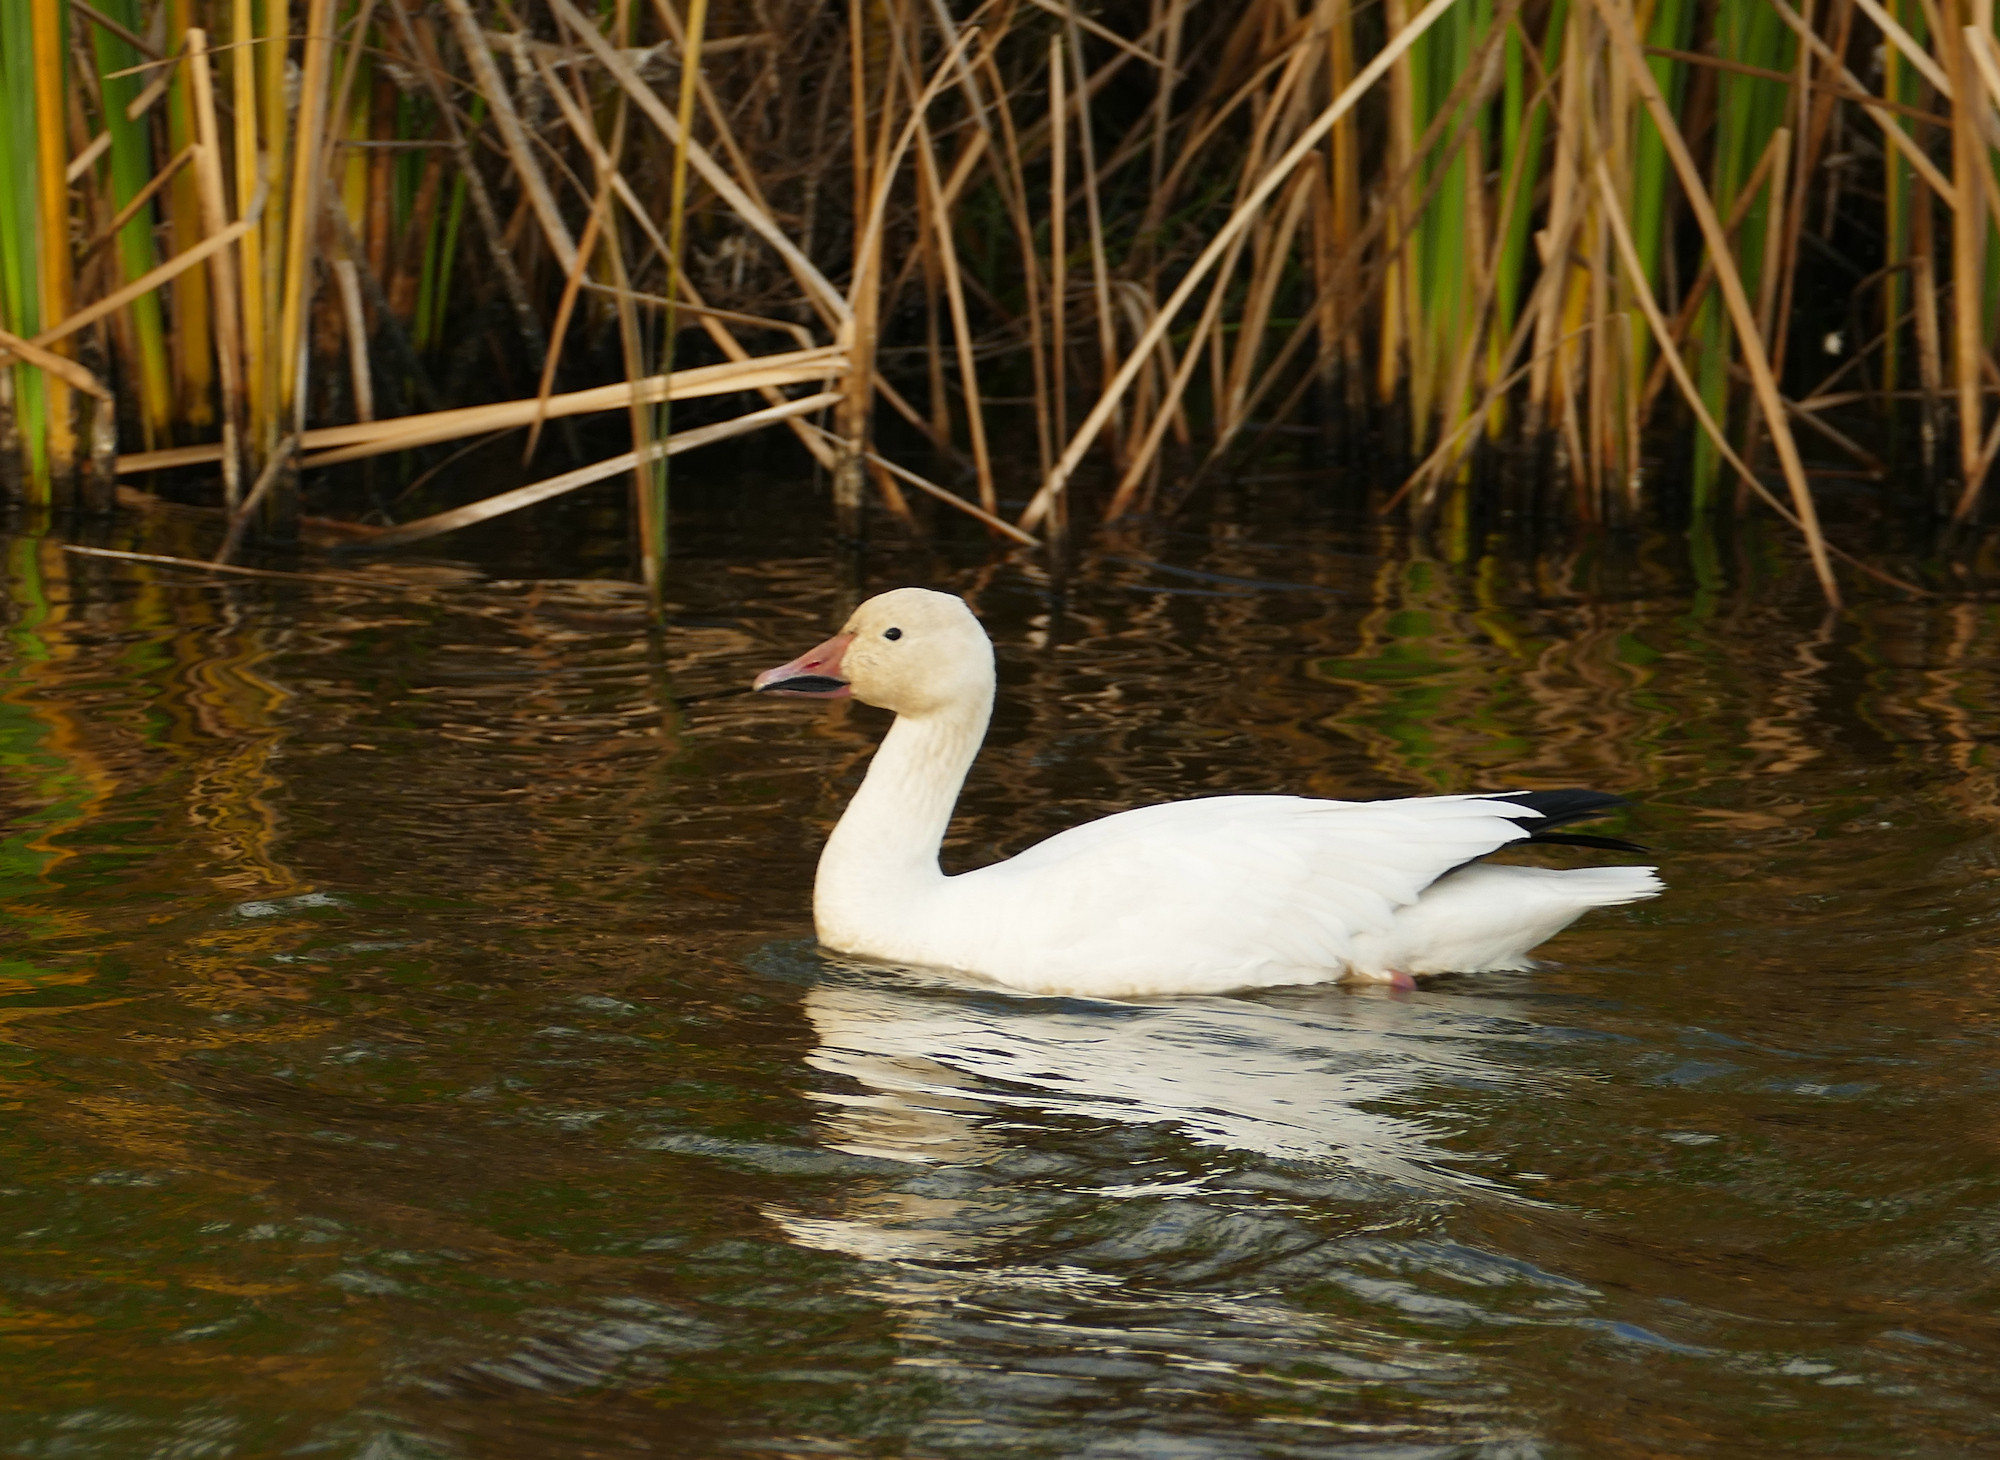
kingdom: Animalia
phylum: Chordata
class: Aves
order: Anseriformes
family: Anatidae
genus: Anser
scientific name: Anser caerulescens
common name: Snow goose
